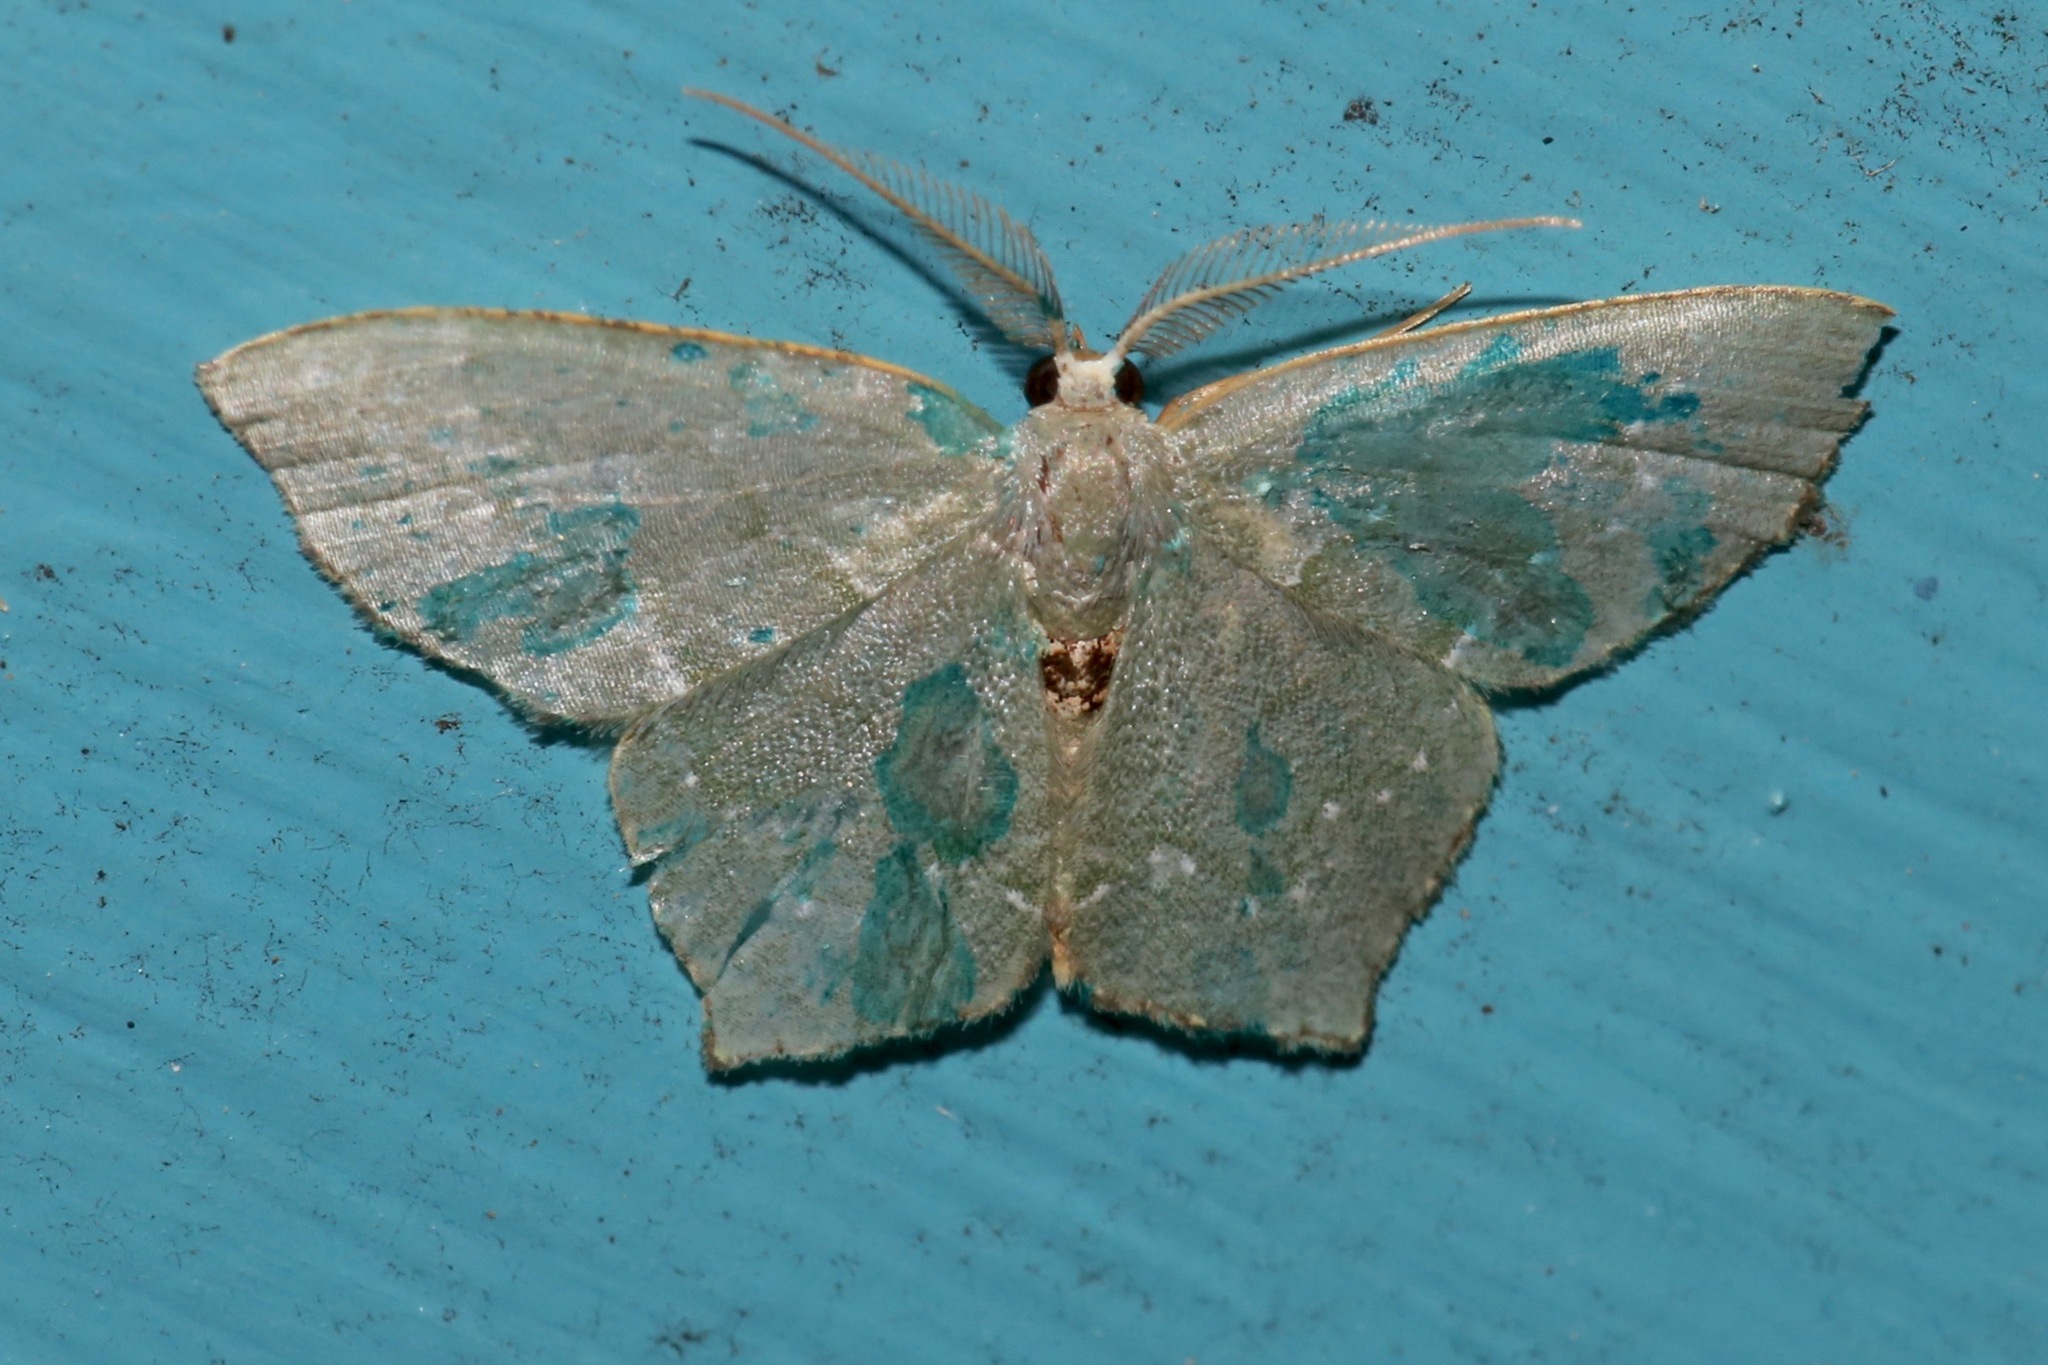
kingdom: Animalia
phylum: Arthropoda
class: Insecta
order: Lepidoptera
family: Geometridae
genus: Chloropteryx
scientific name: Chloropteryx tepperaria
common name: Angle winged emerald moth
